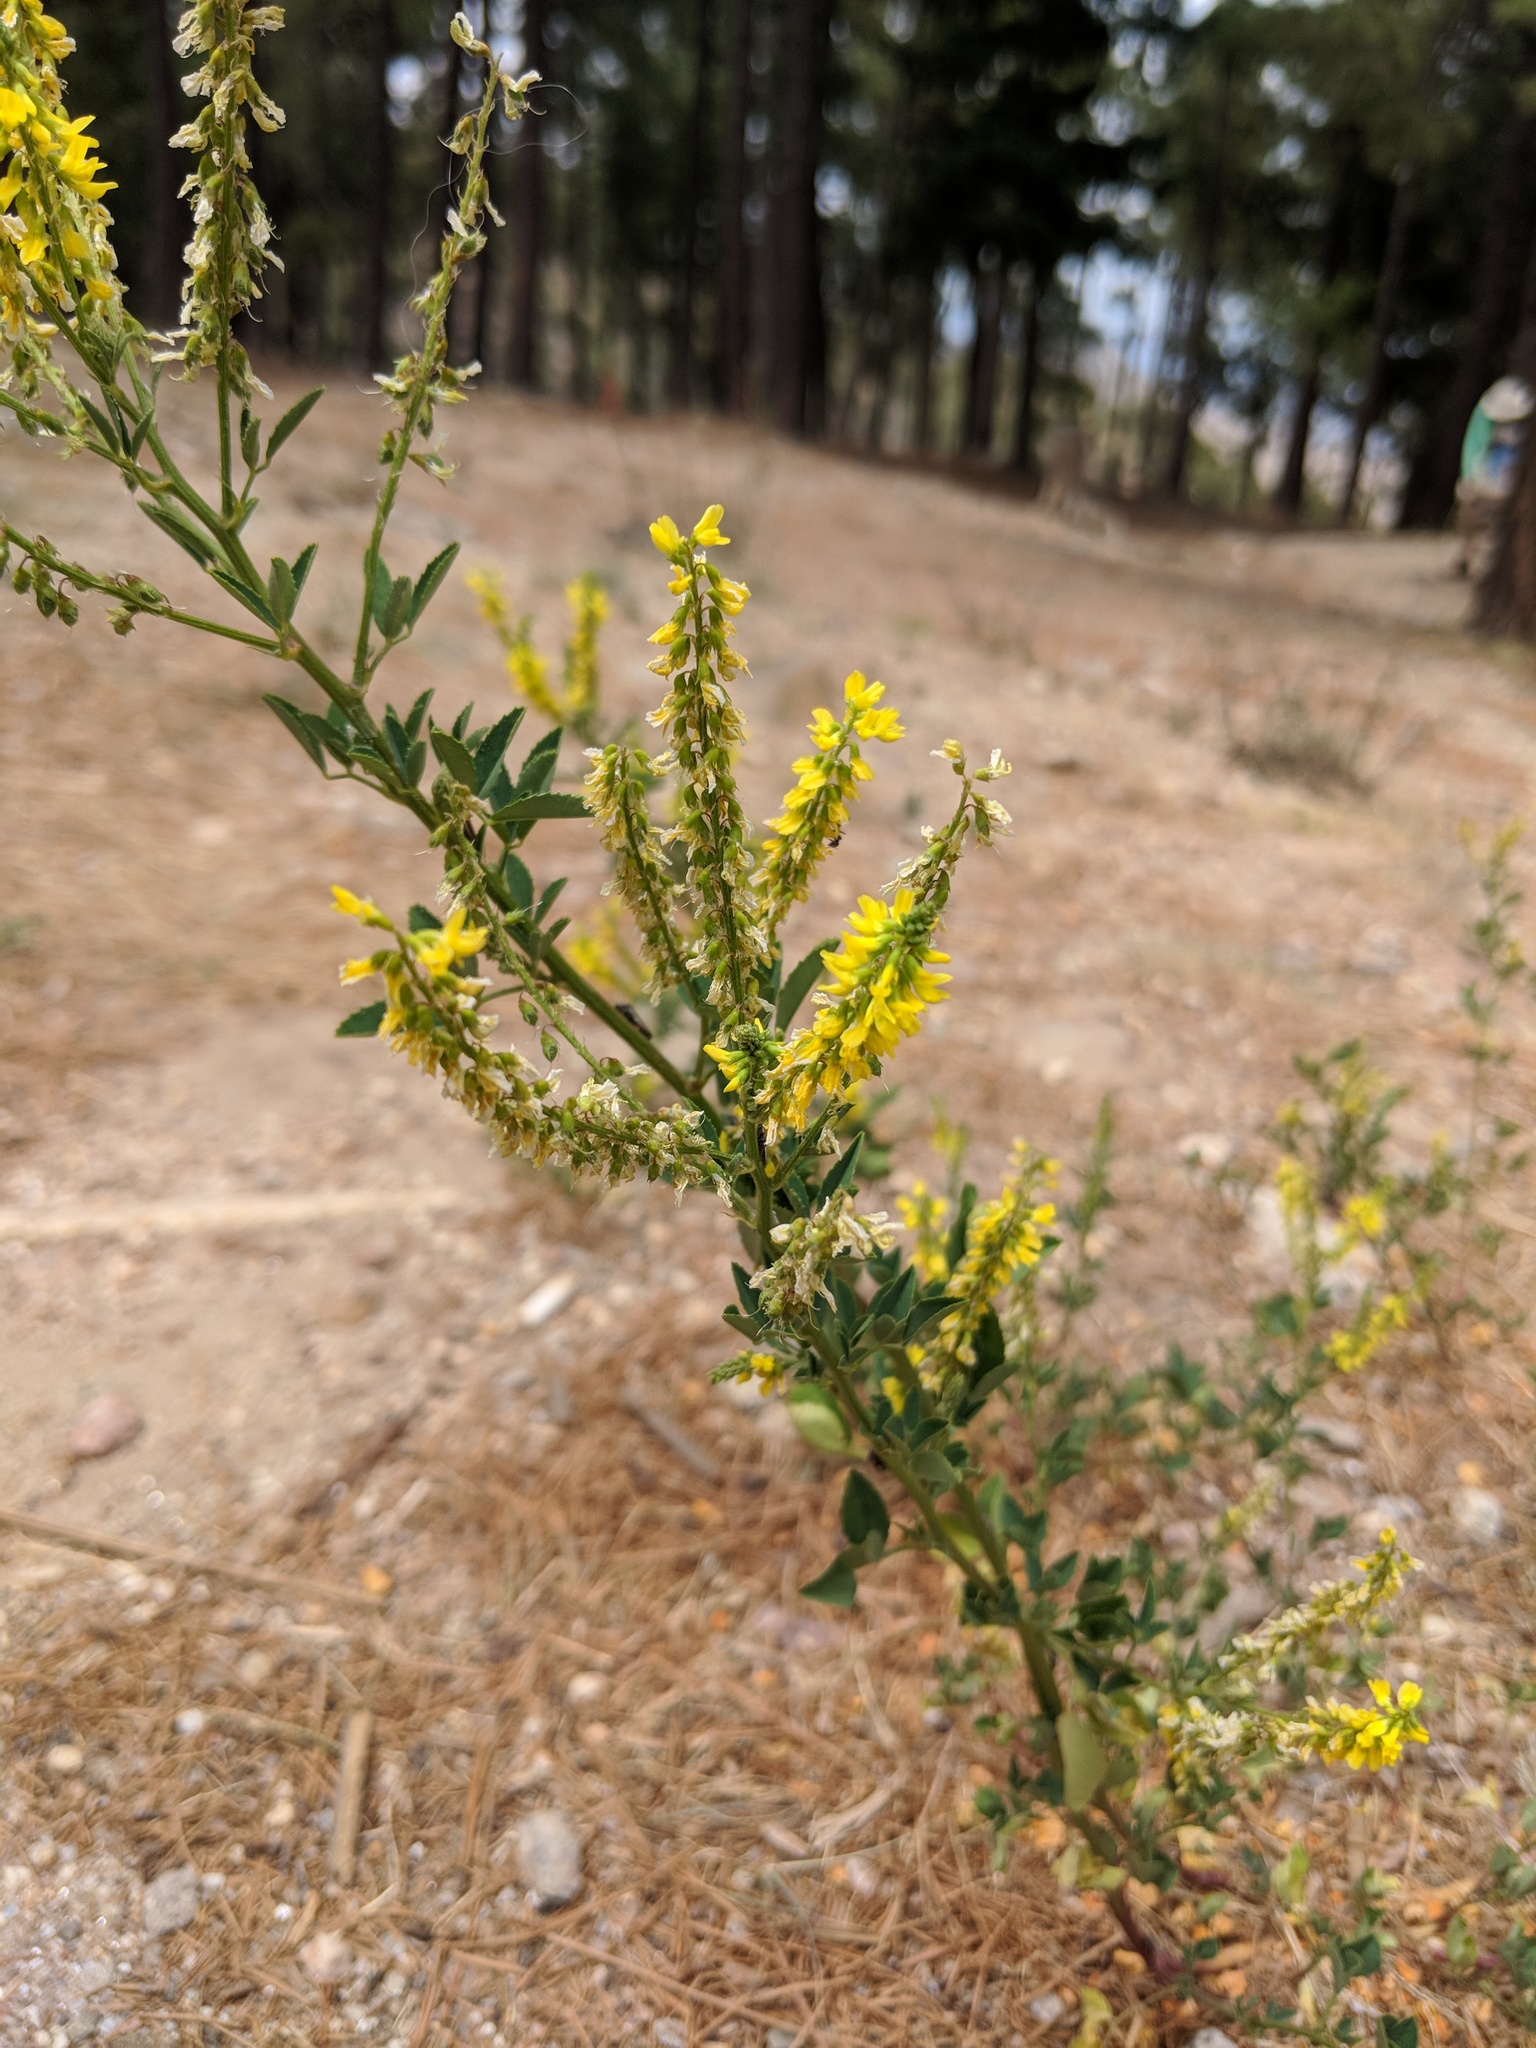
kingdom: Plantae
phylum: Tracheophyta
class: Magnoliopsida
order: Fabales
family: Fabaceae
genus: Melilotus
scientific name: Melilotus officinalis
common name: Sweetclover
